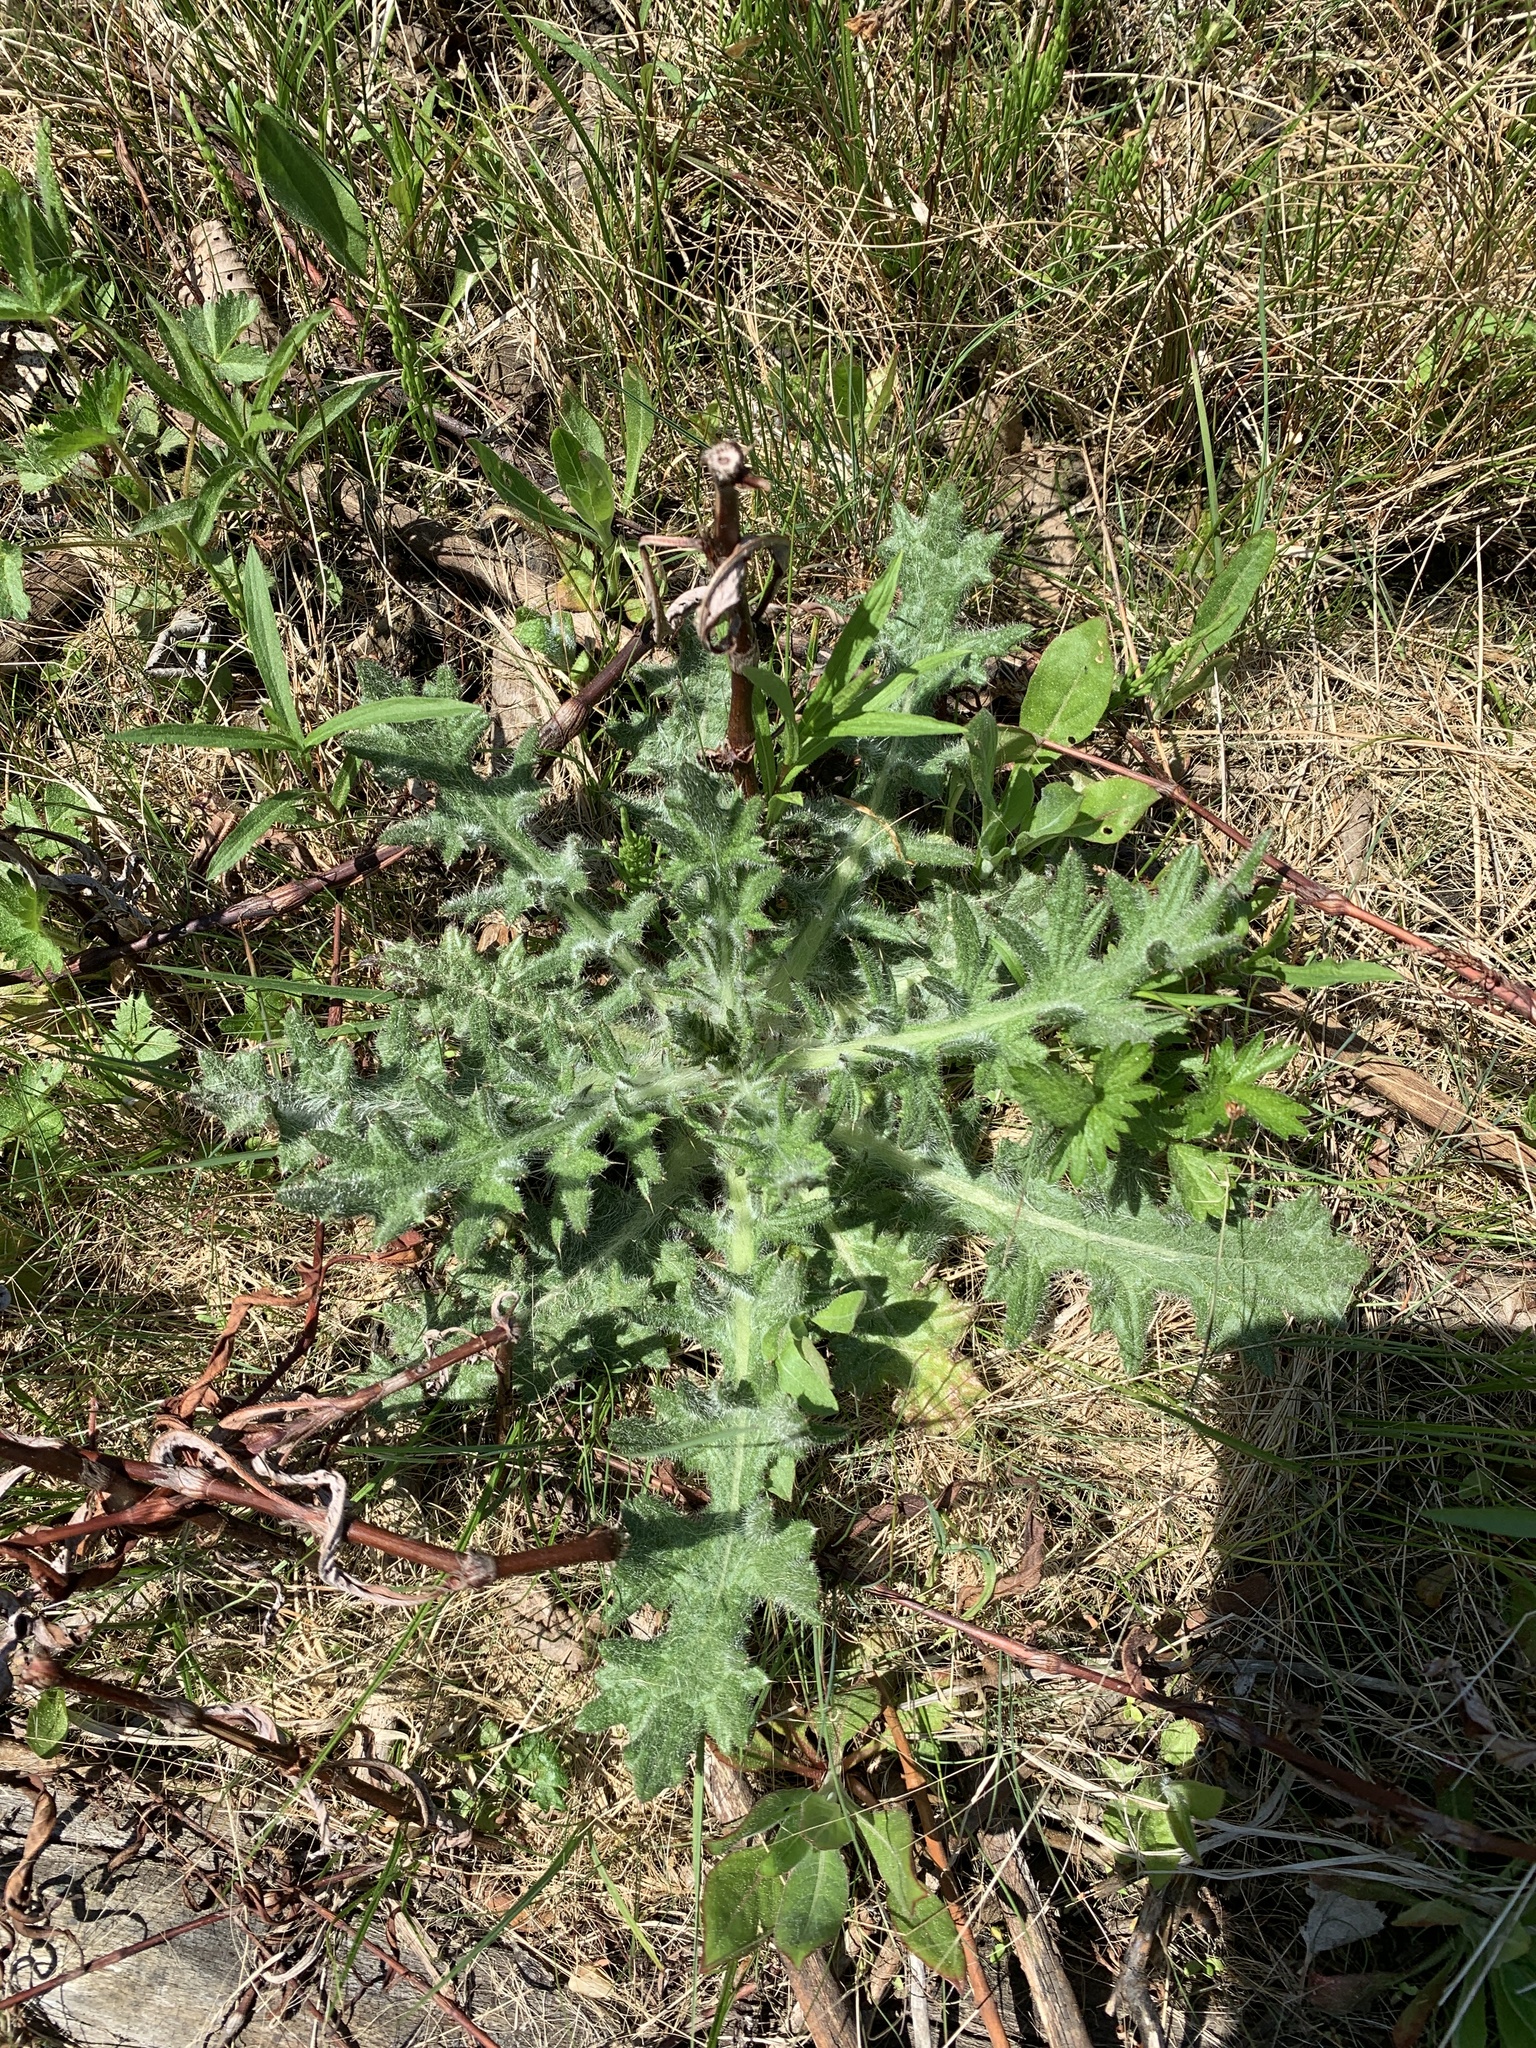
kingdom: Plantae
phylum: Tracheophyta
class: Magnoliopsida
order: Asterales
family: Asteraceae
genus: Cirsium
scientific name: Cirsium vulgare
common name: Bull thistle
